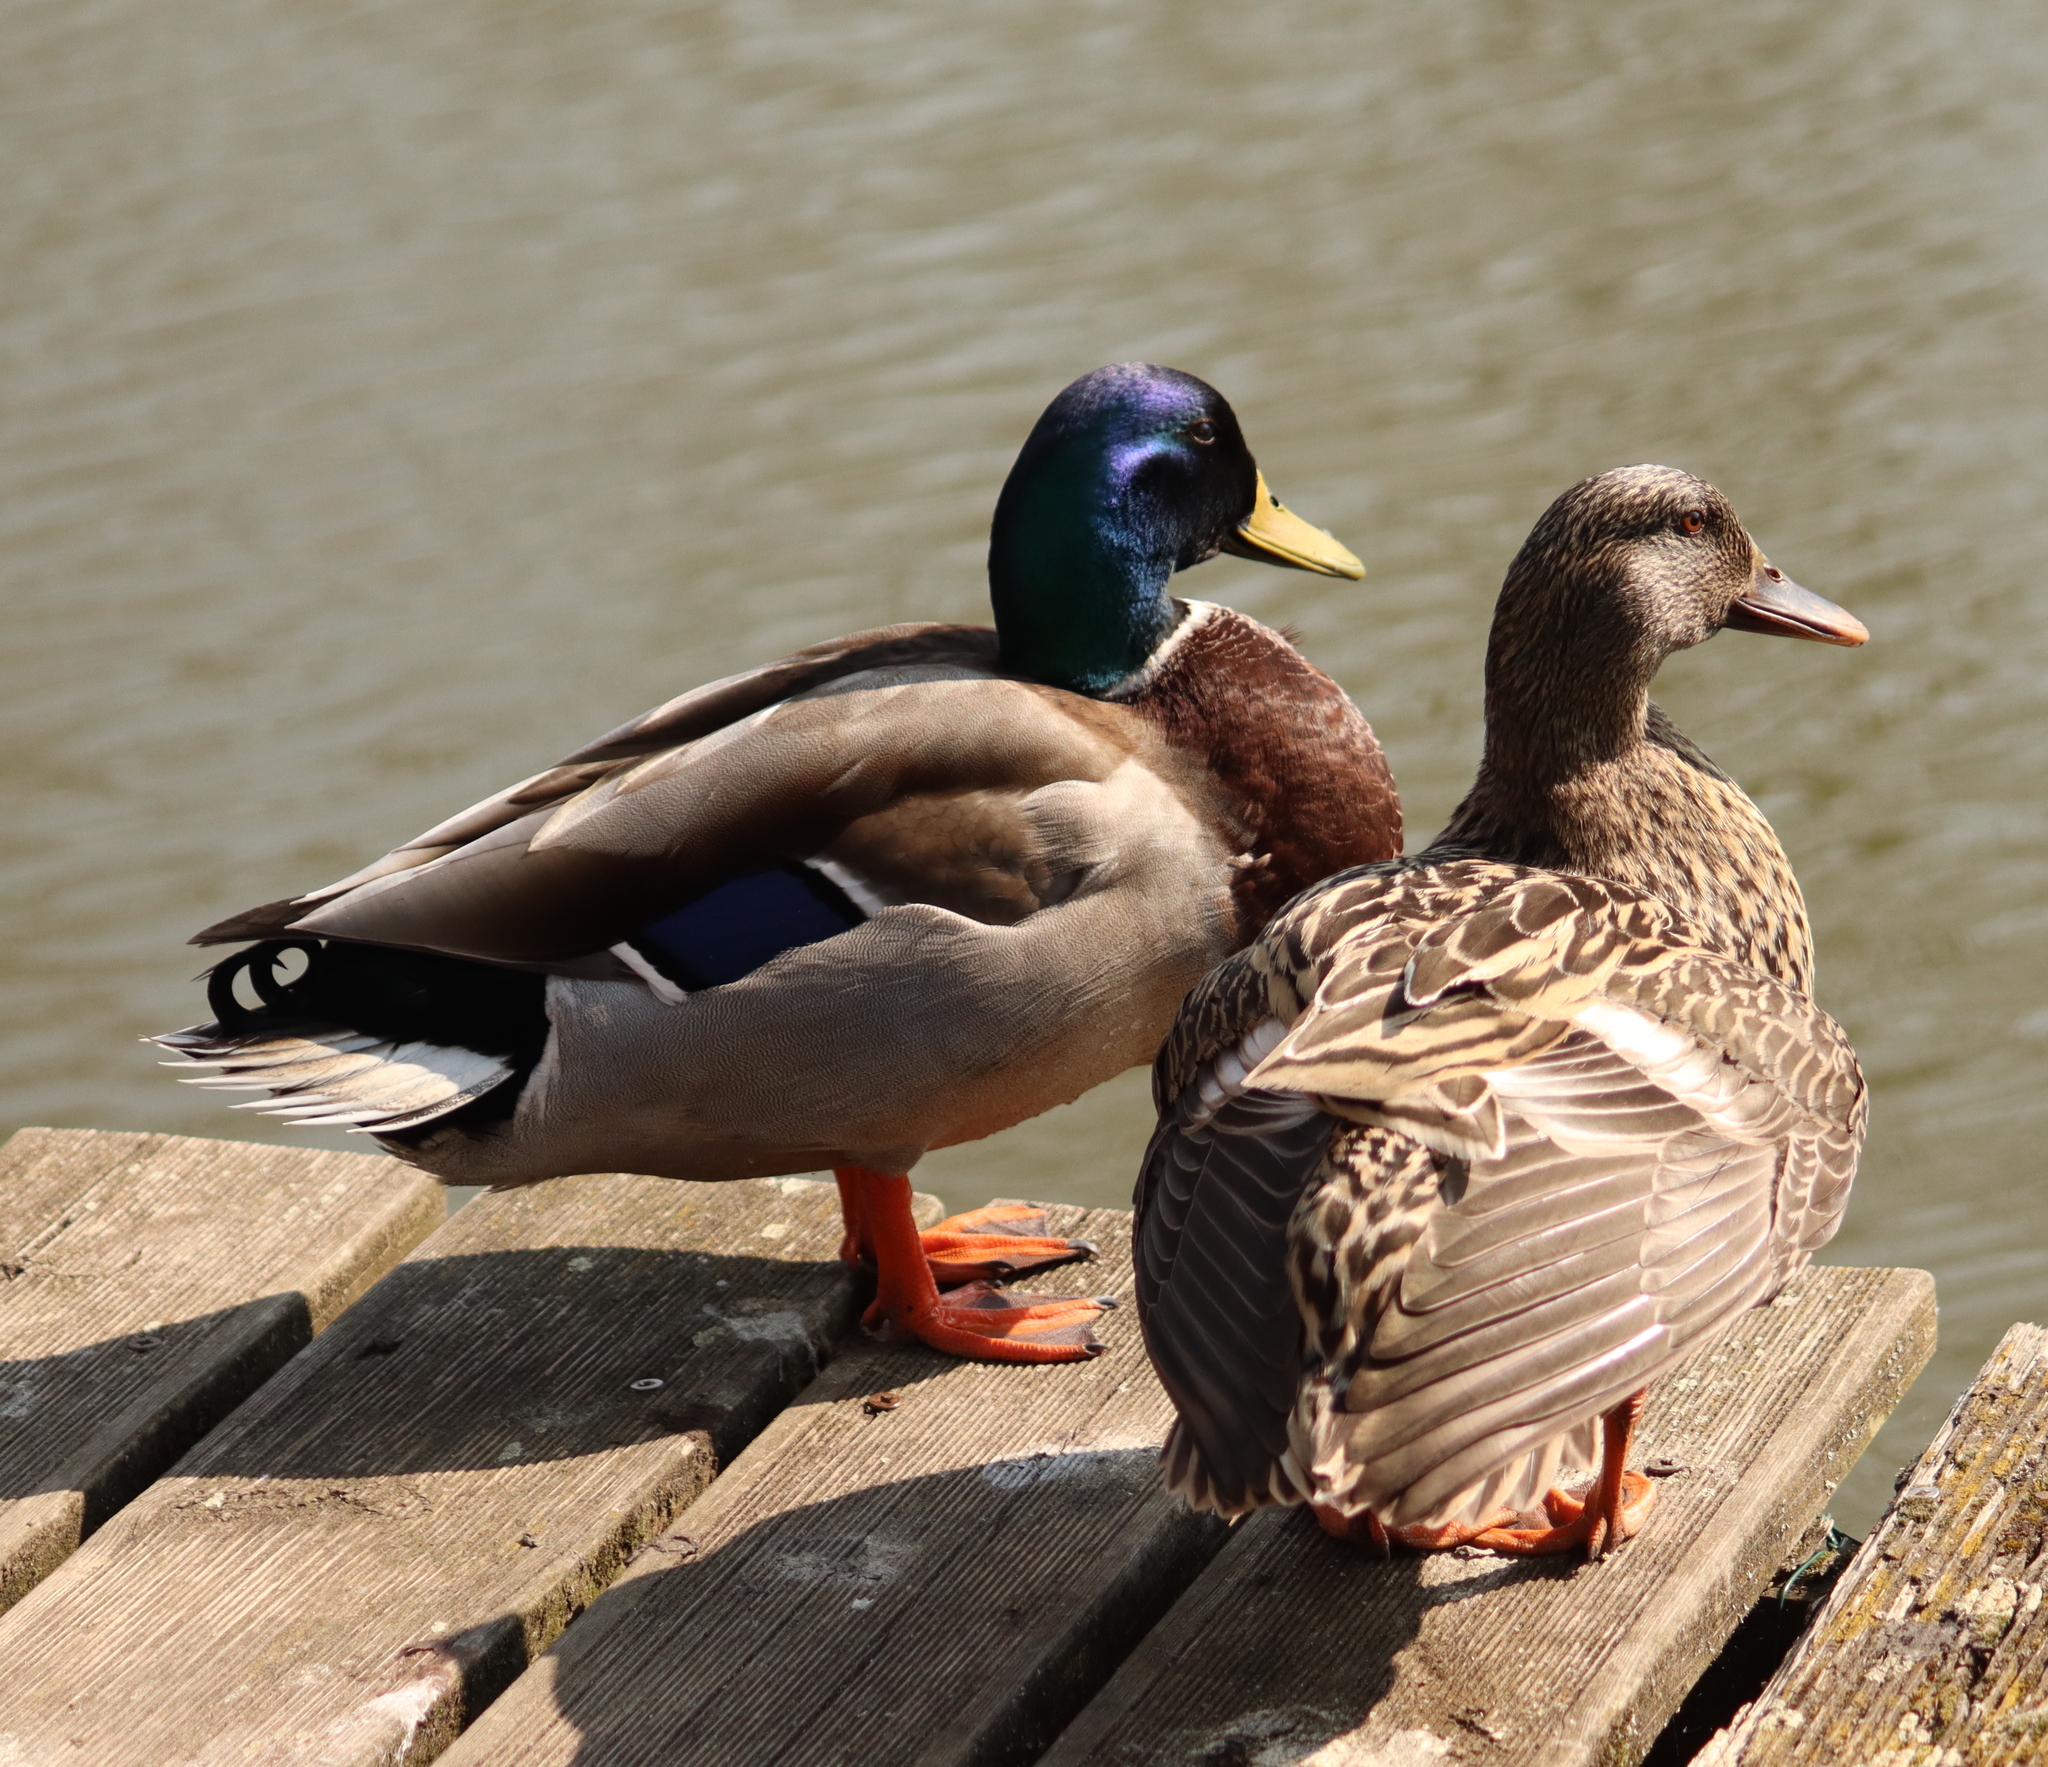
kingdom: Animalia
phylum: Chordata
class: Aves
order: Anseriformes
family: Anatidae
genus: Anas
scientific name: Anas platyrhynchos
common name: Mallard
